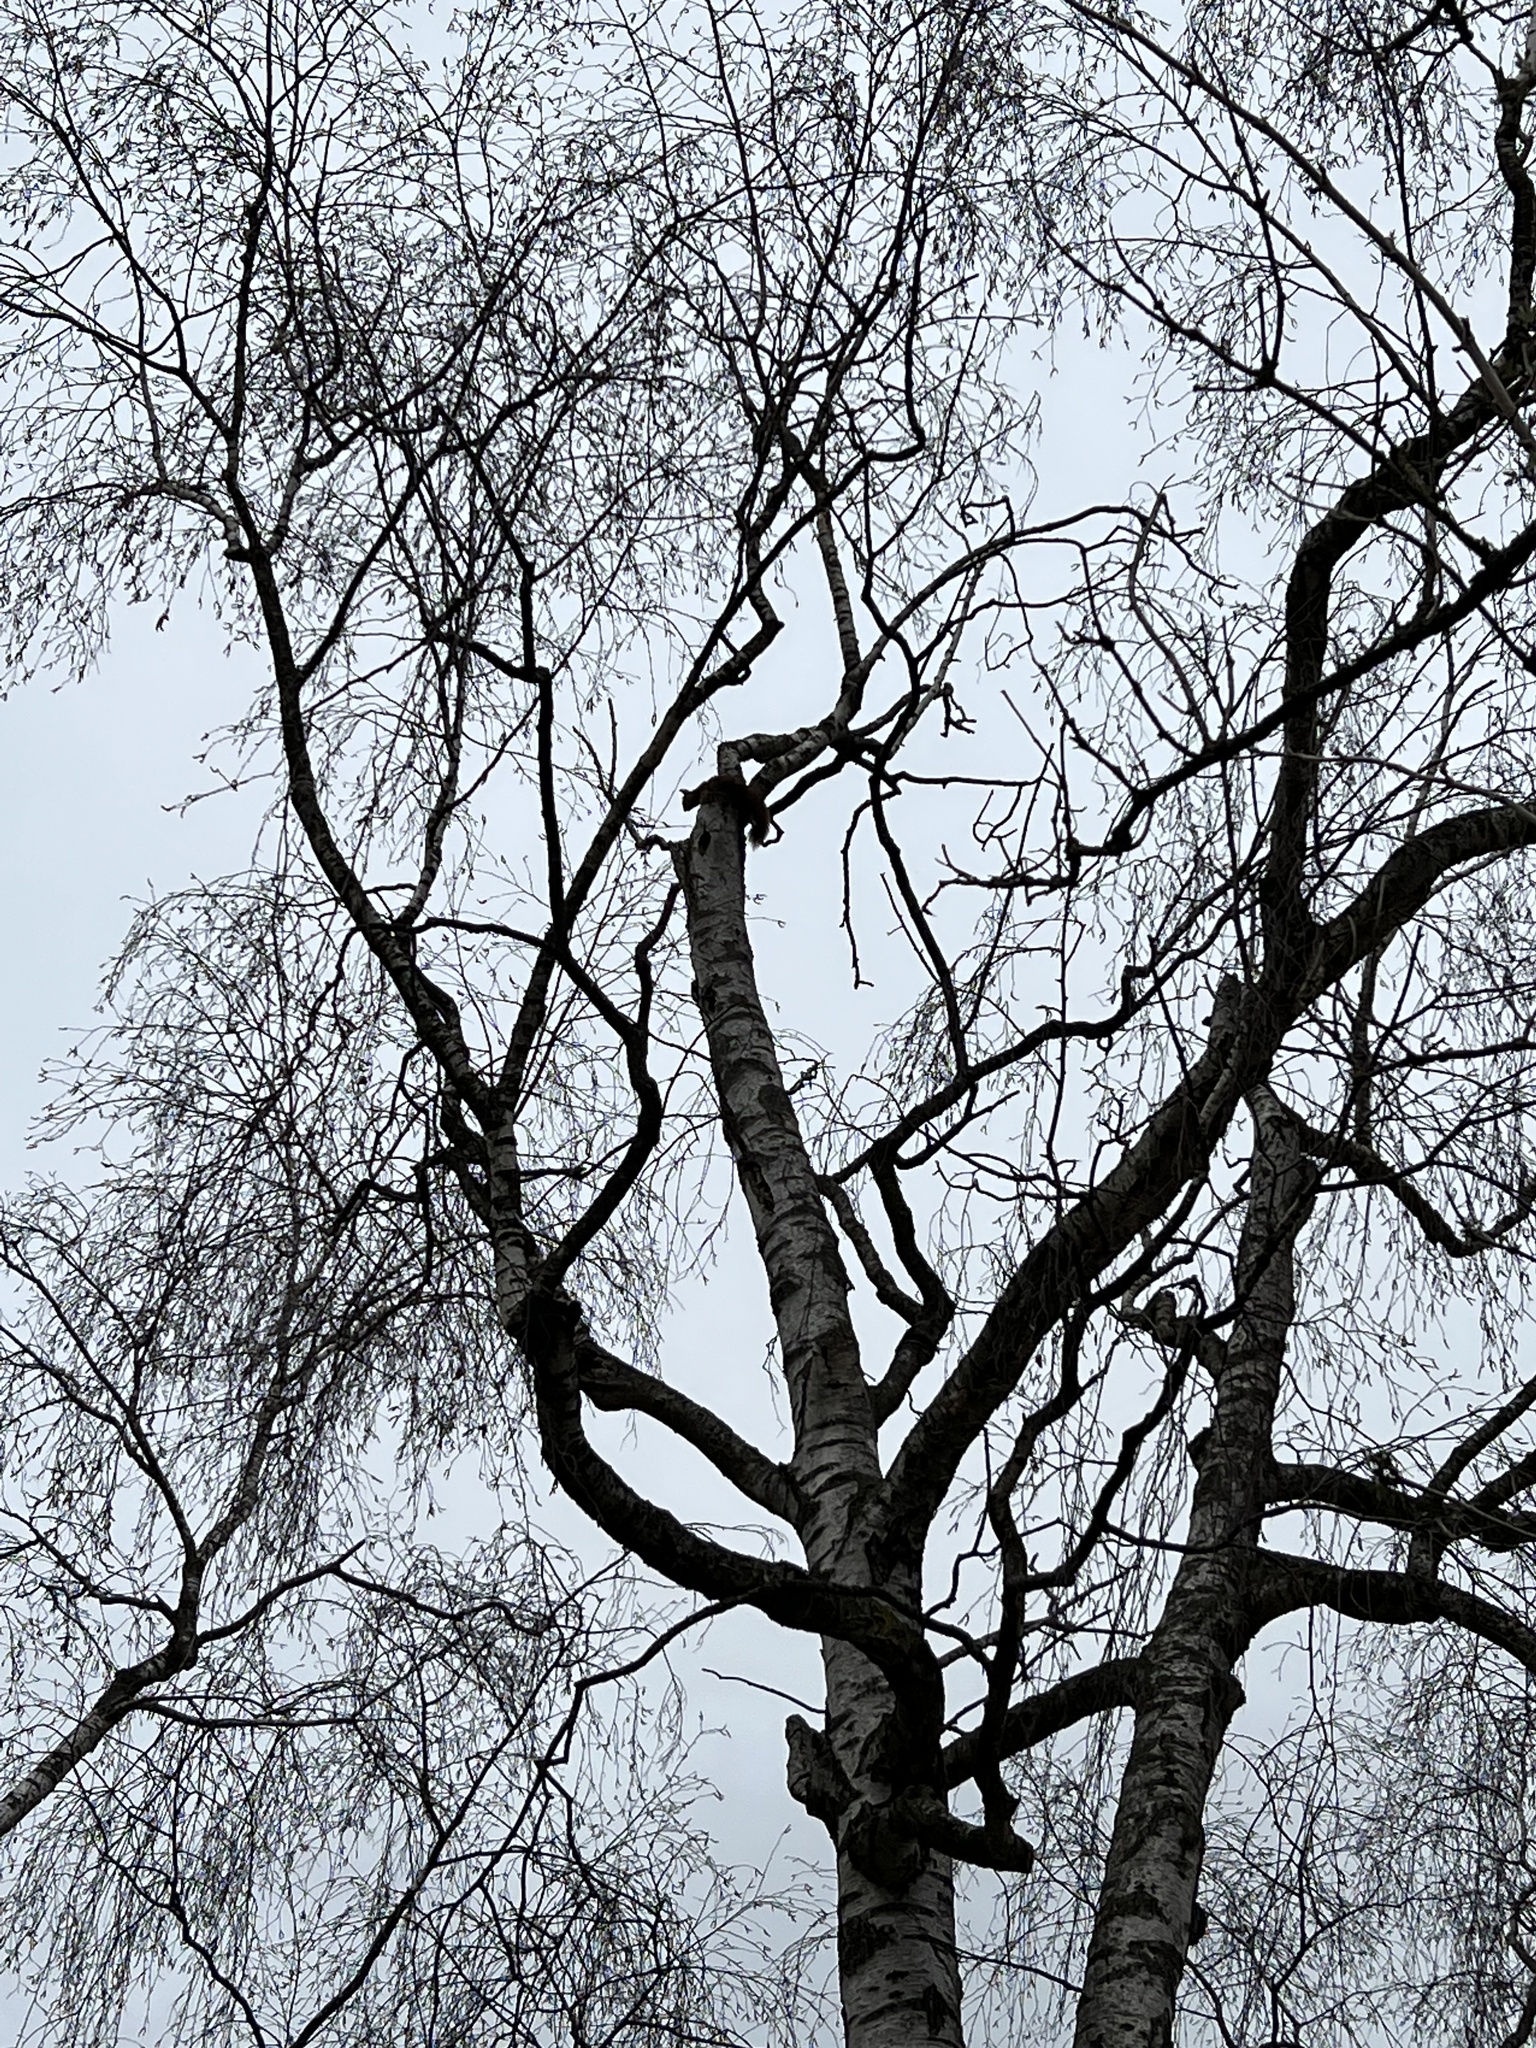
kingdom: Animalia
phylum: Chordata
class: Mammalia
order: Rodentia
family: Sciuridae
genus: Sciurus
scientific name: Sciurus vulgaris
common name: Eurasian red squirrel
